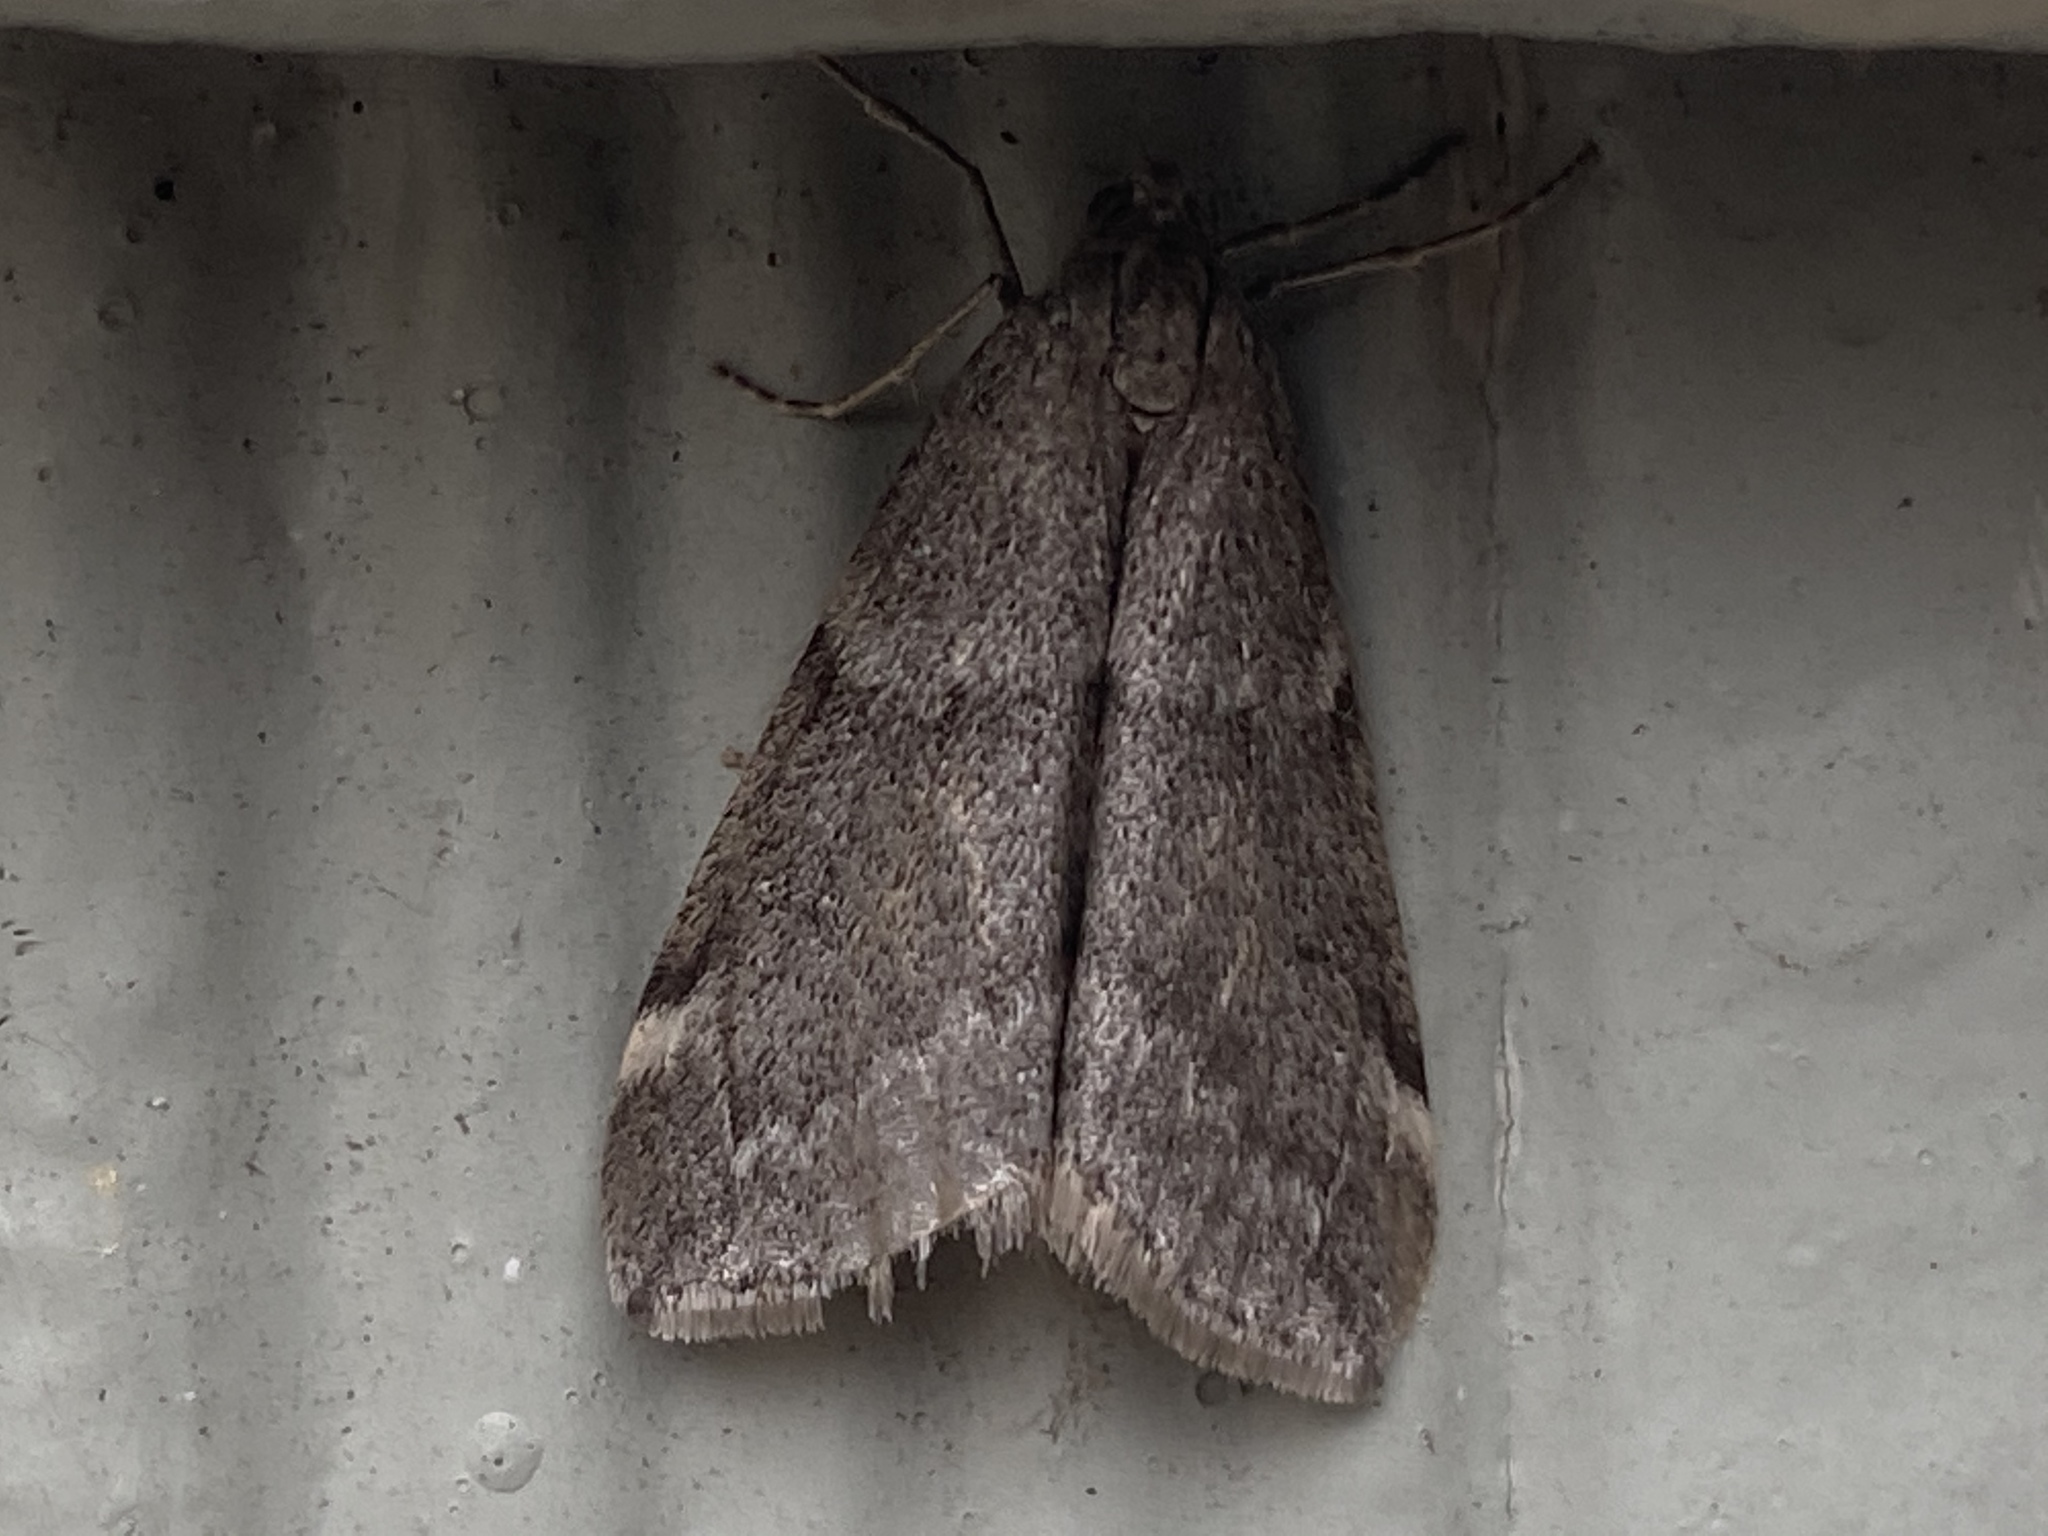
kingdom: Animalia
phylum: Arthropoda
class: Insecta
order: Lepidoptera
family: Geometridae
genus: Alsophila
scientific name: Alsophila pometaria
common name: Fall cankerworm
